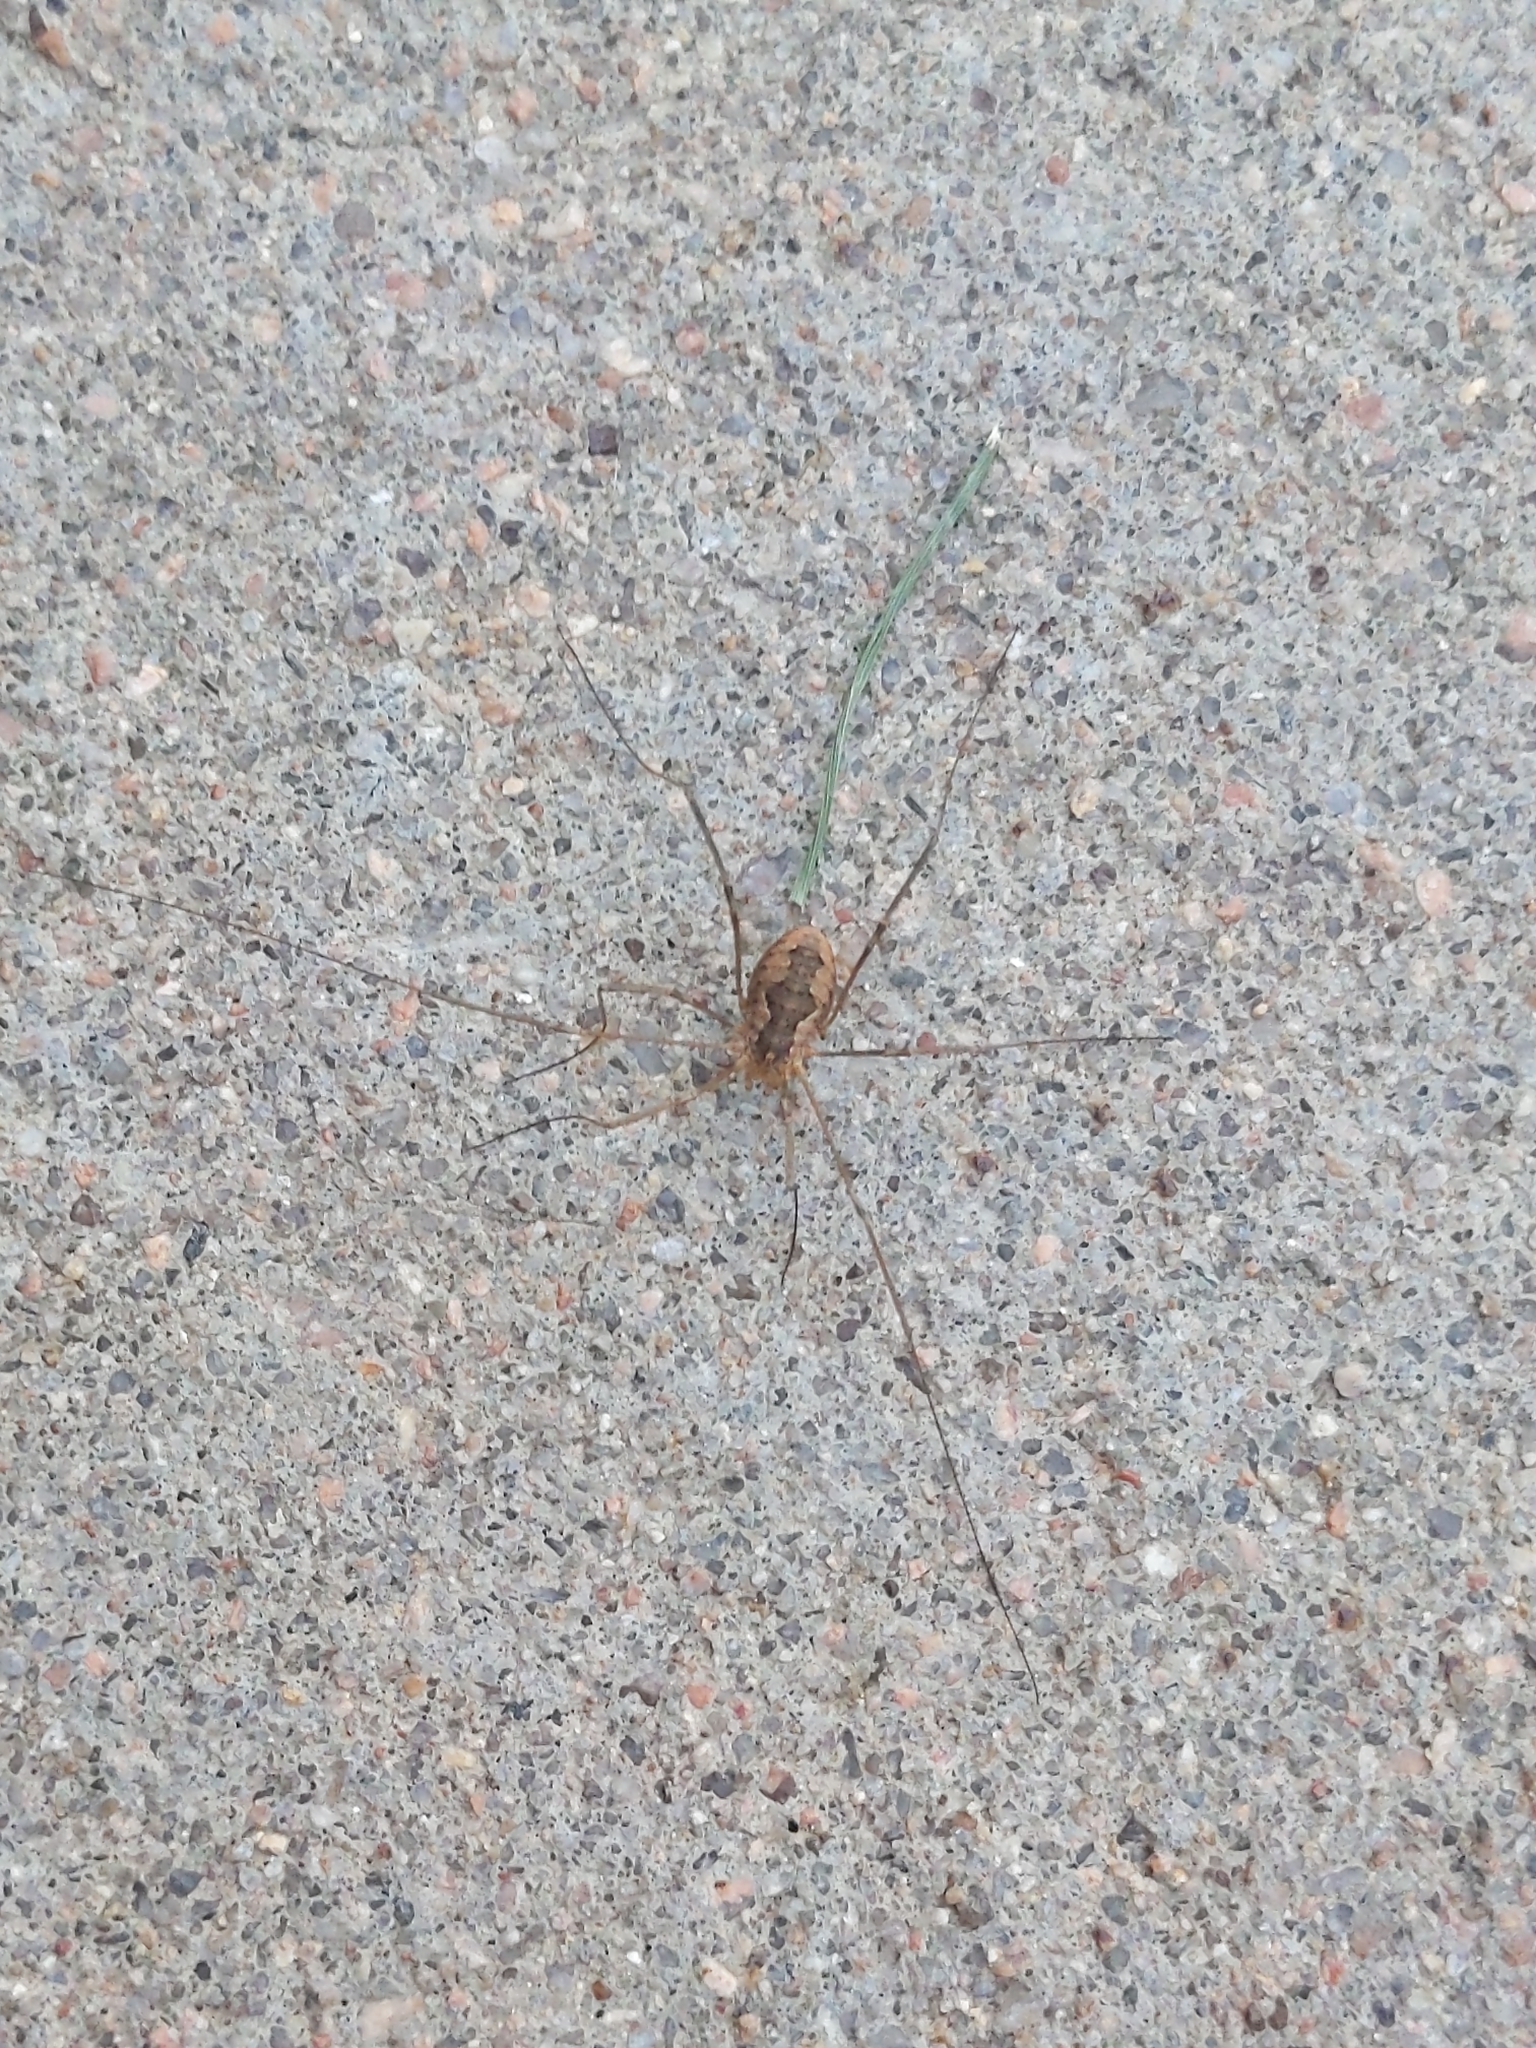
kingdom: Animalia
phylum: Arthropoda
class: Arachnida
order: Opiliones
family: Phalangiidae
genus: Phalangium
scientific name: Phalangium opilio
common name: Daddy longleg
